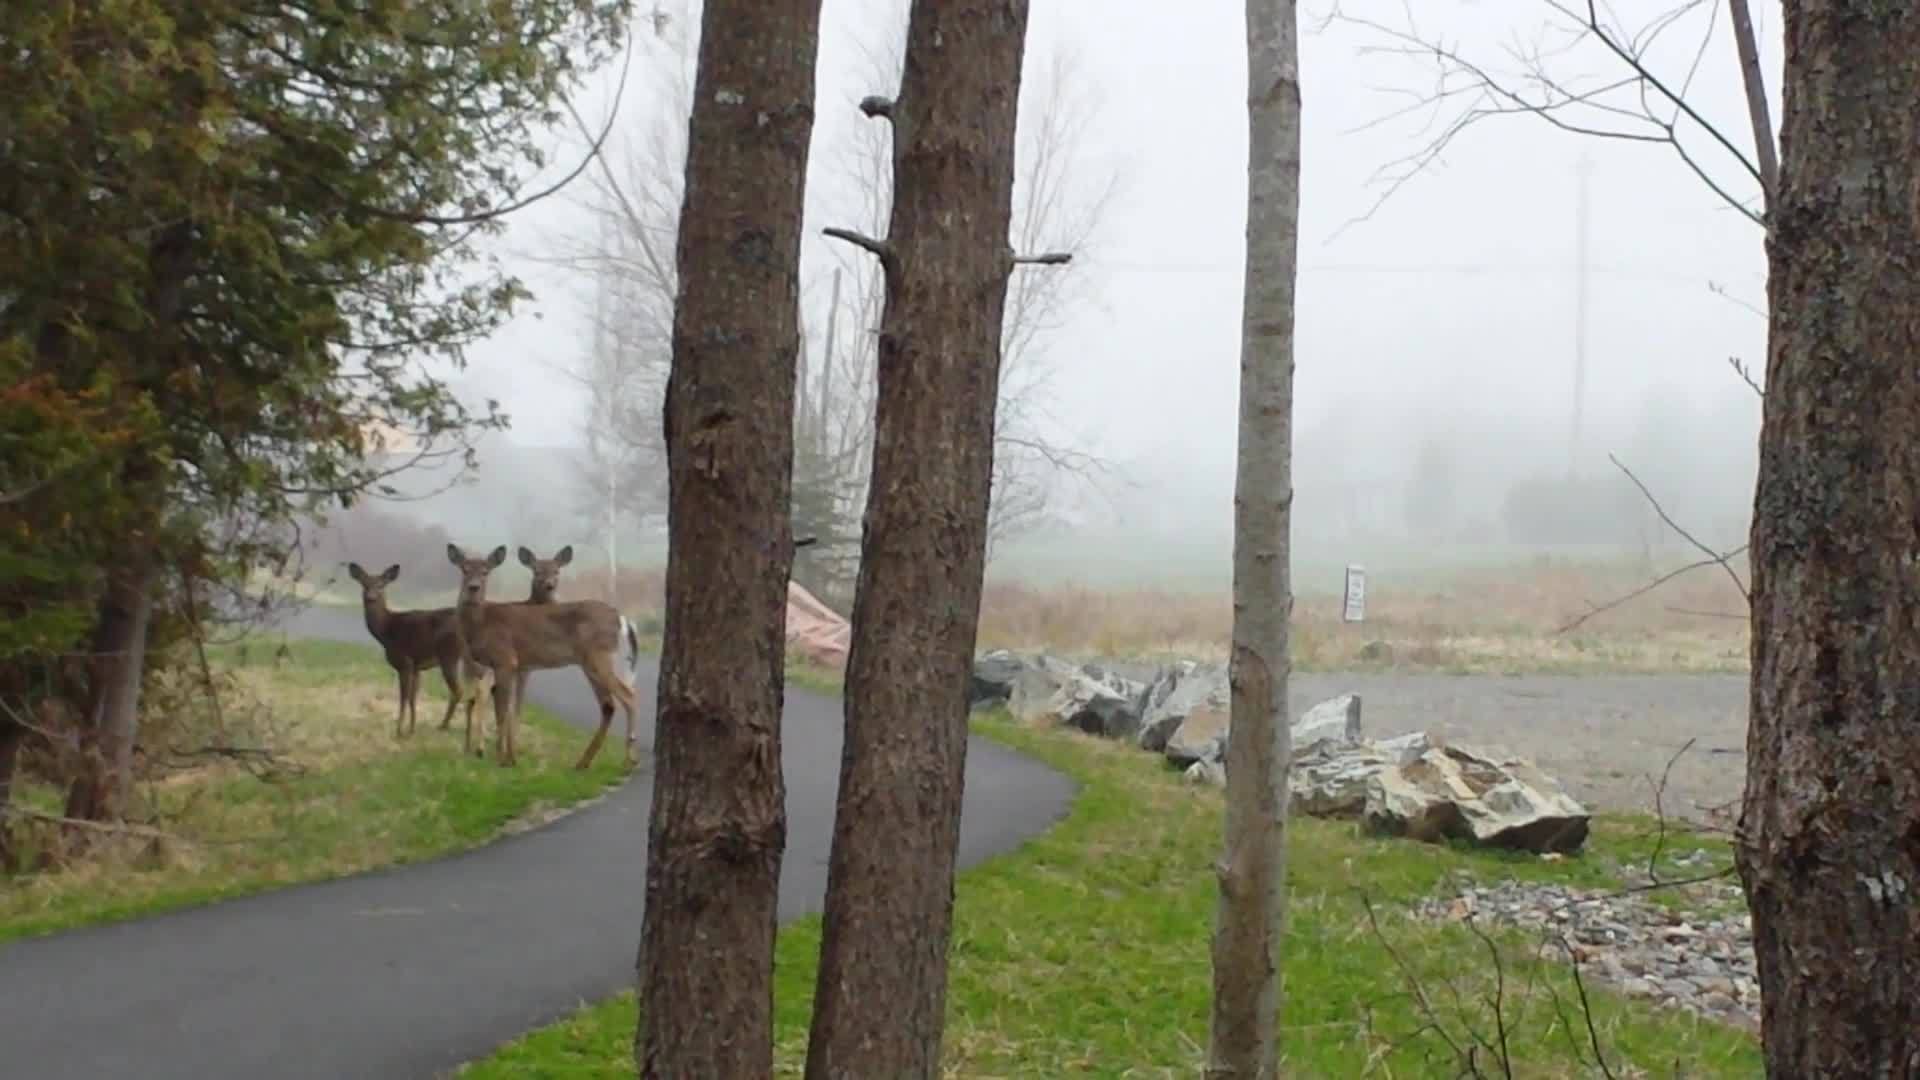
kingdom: Animalia
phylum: Chordata
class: Mammalia
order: Artiodactyla
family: Cervidae
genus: Odocoileus
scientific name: Odocoileus virginianus
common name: White-tailed deer
